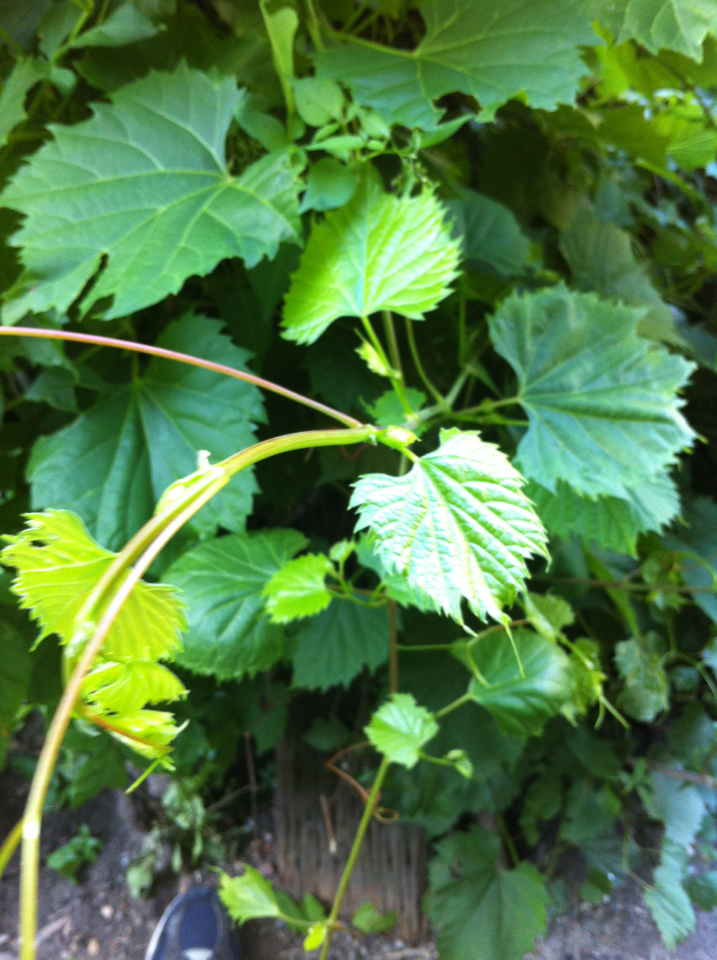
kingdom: Plantae
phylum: Tracheophyta
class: Magnoliopsida
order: Vitales
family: Vitaceae
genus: Vitis
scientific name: Vitis riparia
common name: Frost grape
